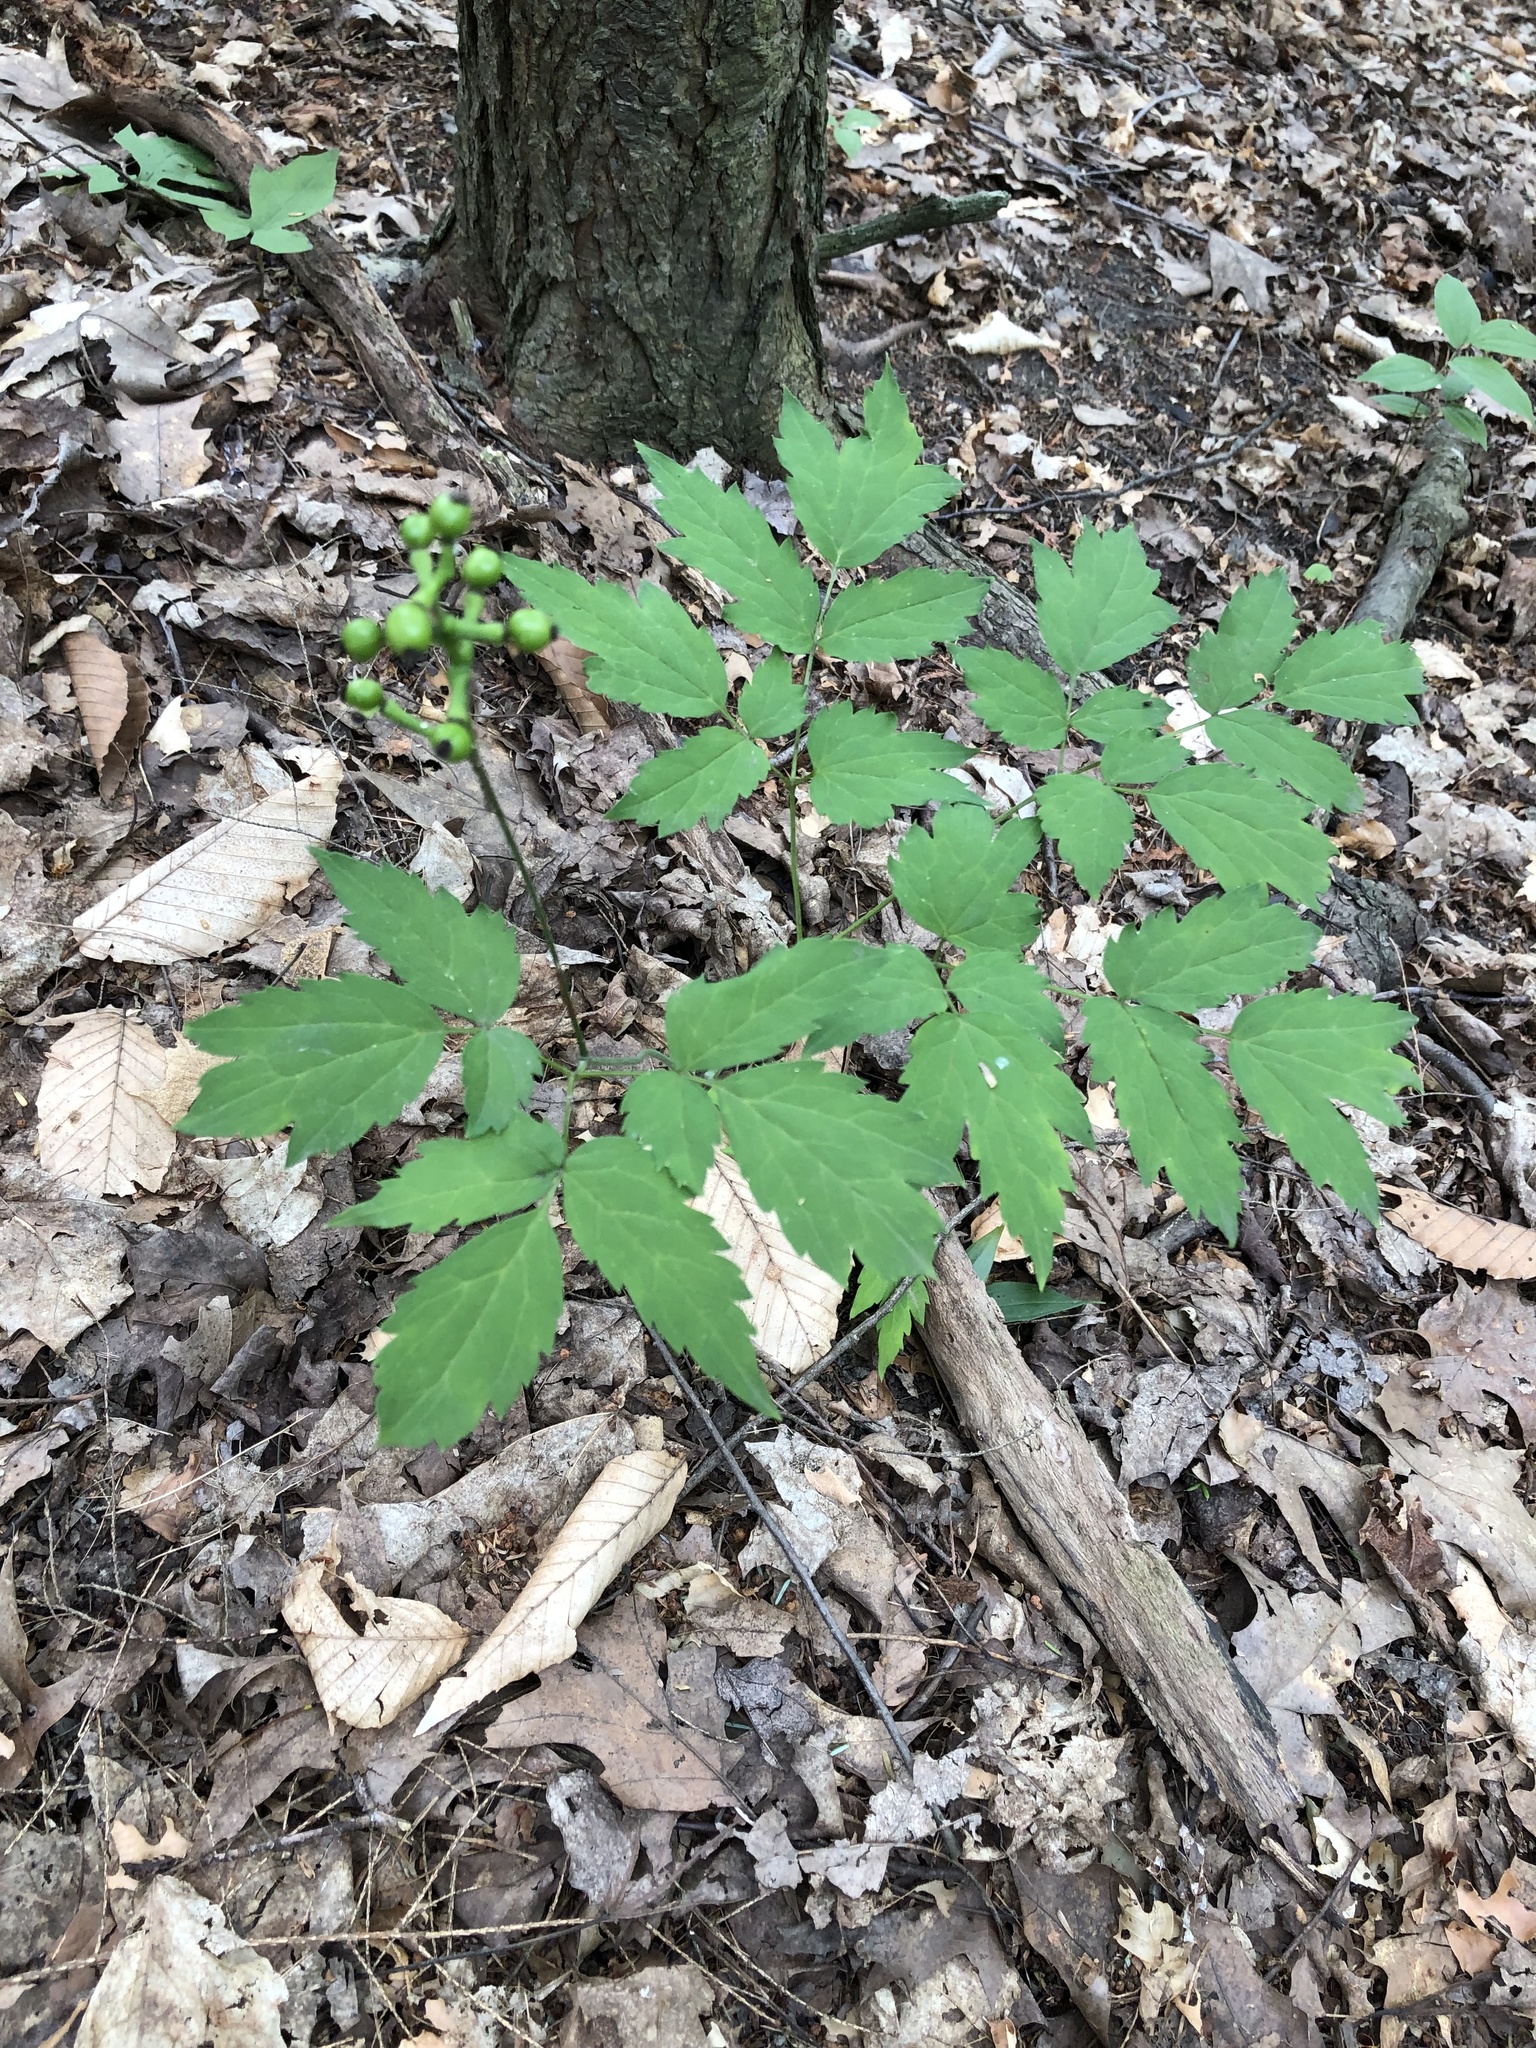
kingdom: Plantae
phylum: Tracheophyta
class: Magnoliopsida
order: Ranunculales
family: Ranunculaceae
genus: Actaea
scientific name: Actaea pachypoda
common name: Doll's-eyes
